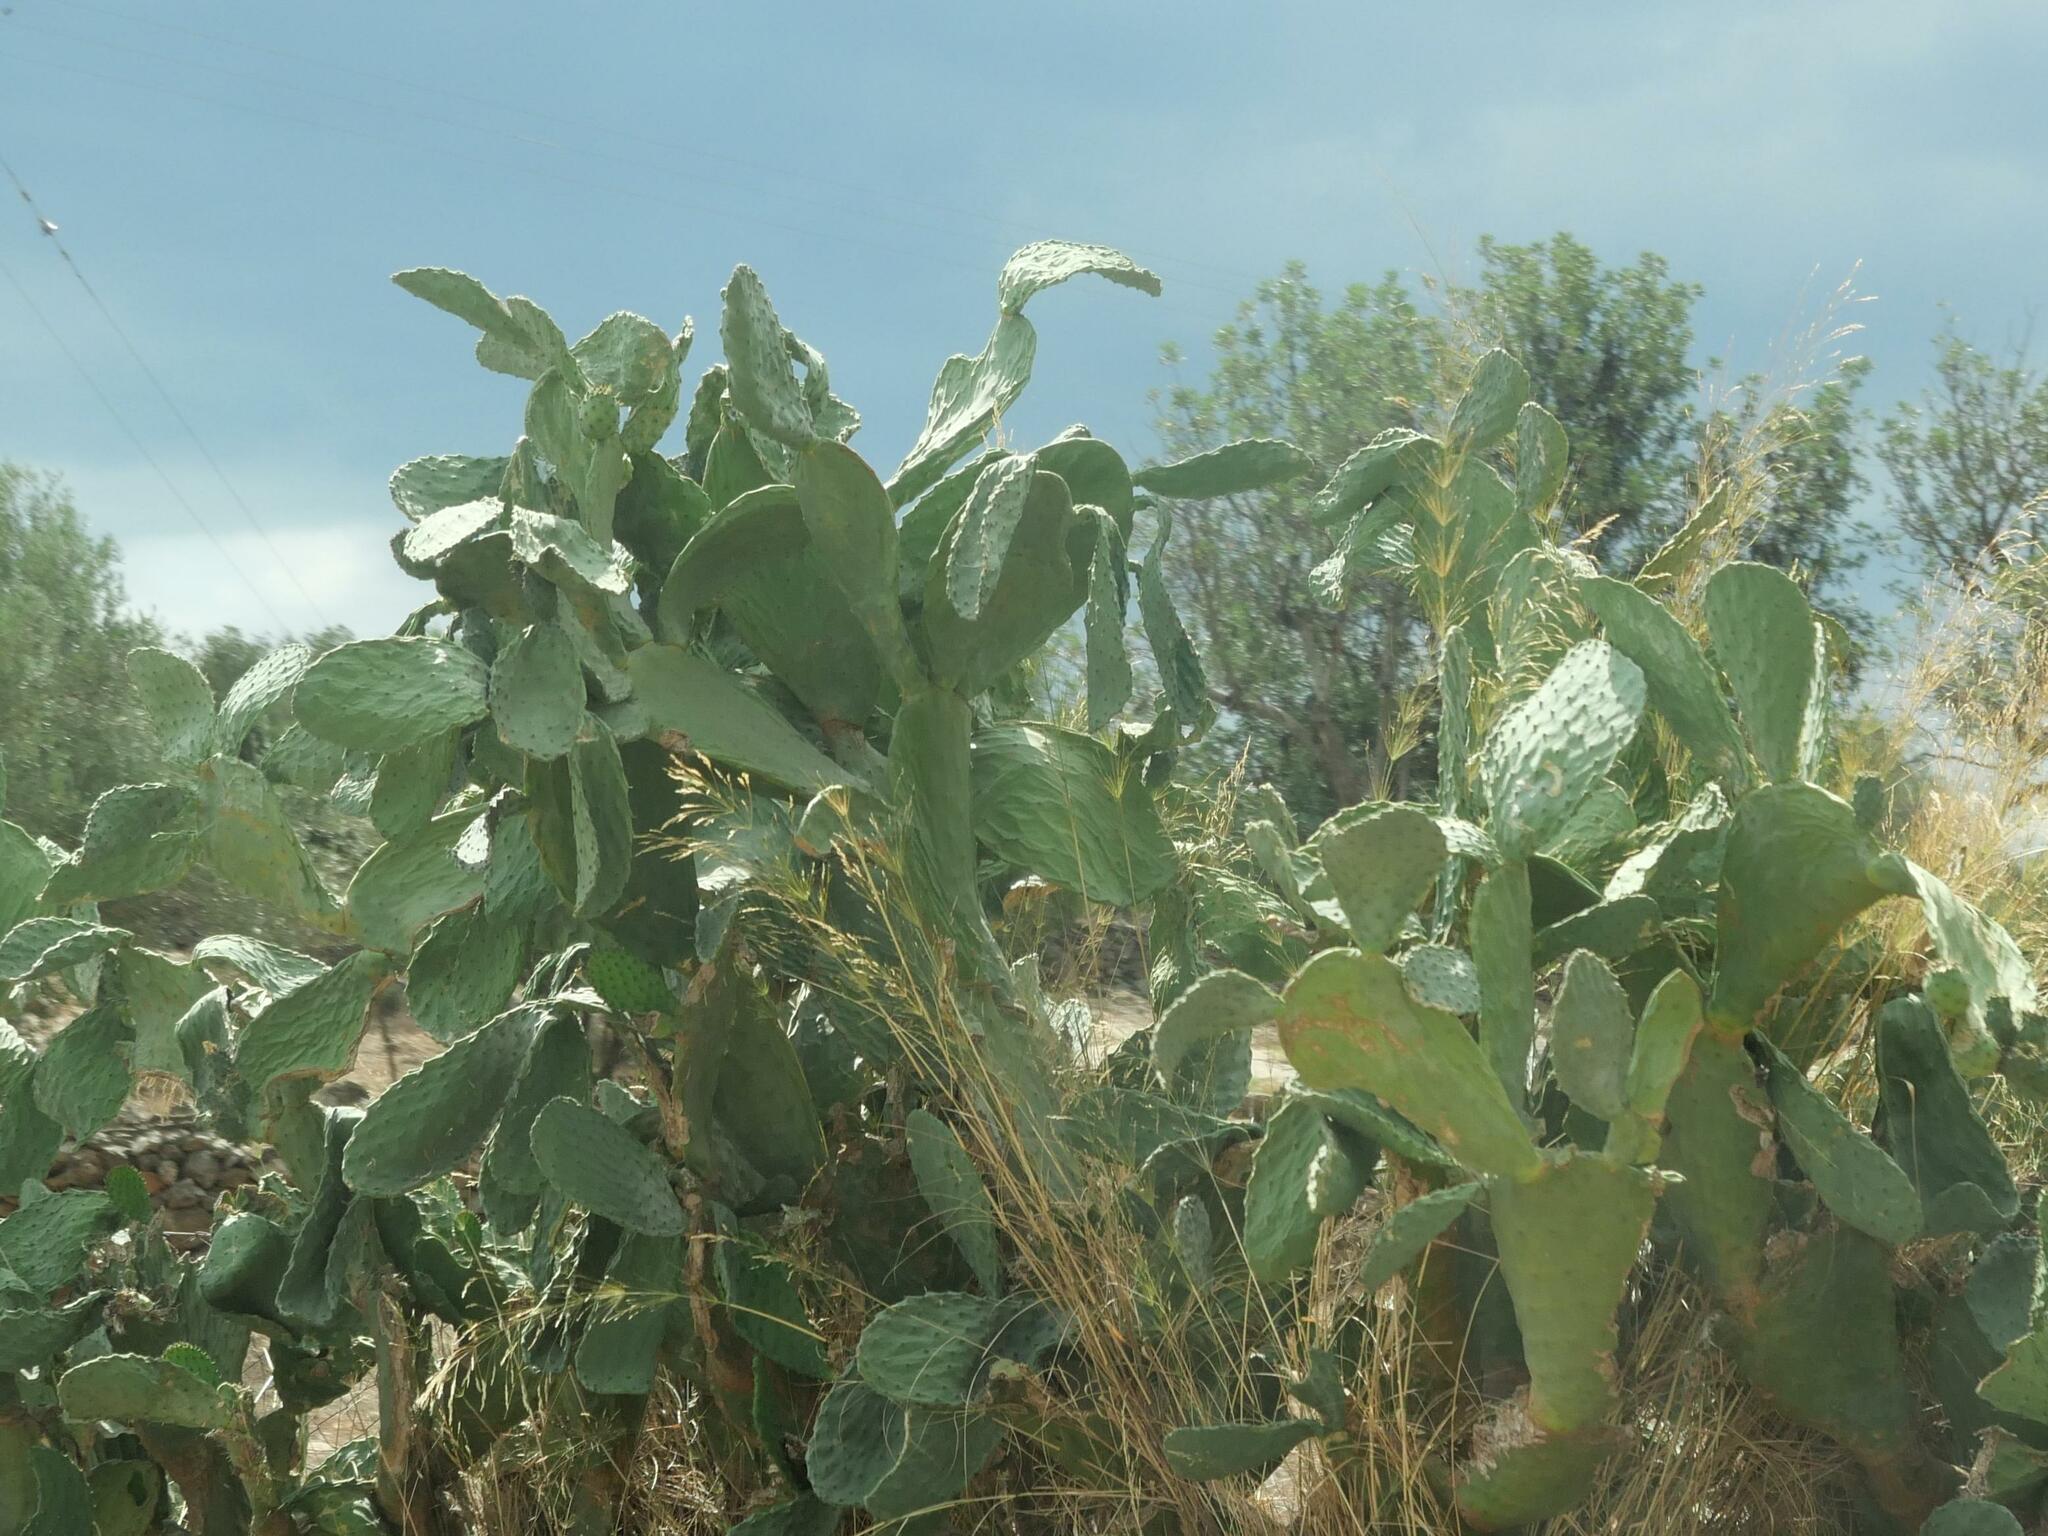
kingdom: Plantae
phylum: Tracheophyta
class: Magnoliopsida
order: Caryophyllales
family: Cactaceae
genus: Opuntia
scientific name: Opuntia ficus-indica
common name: Barbary fig
